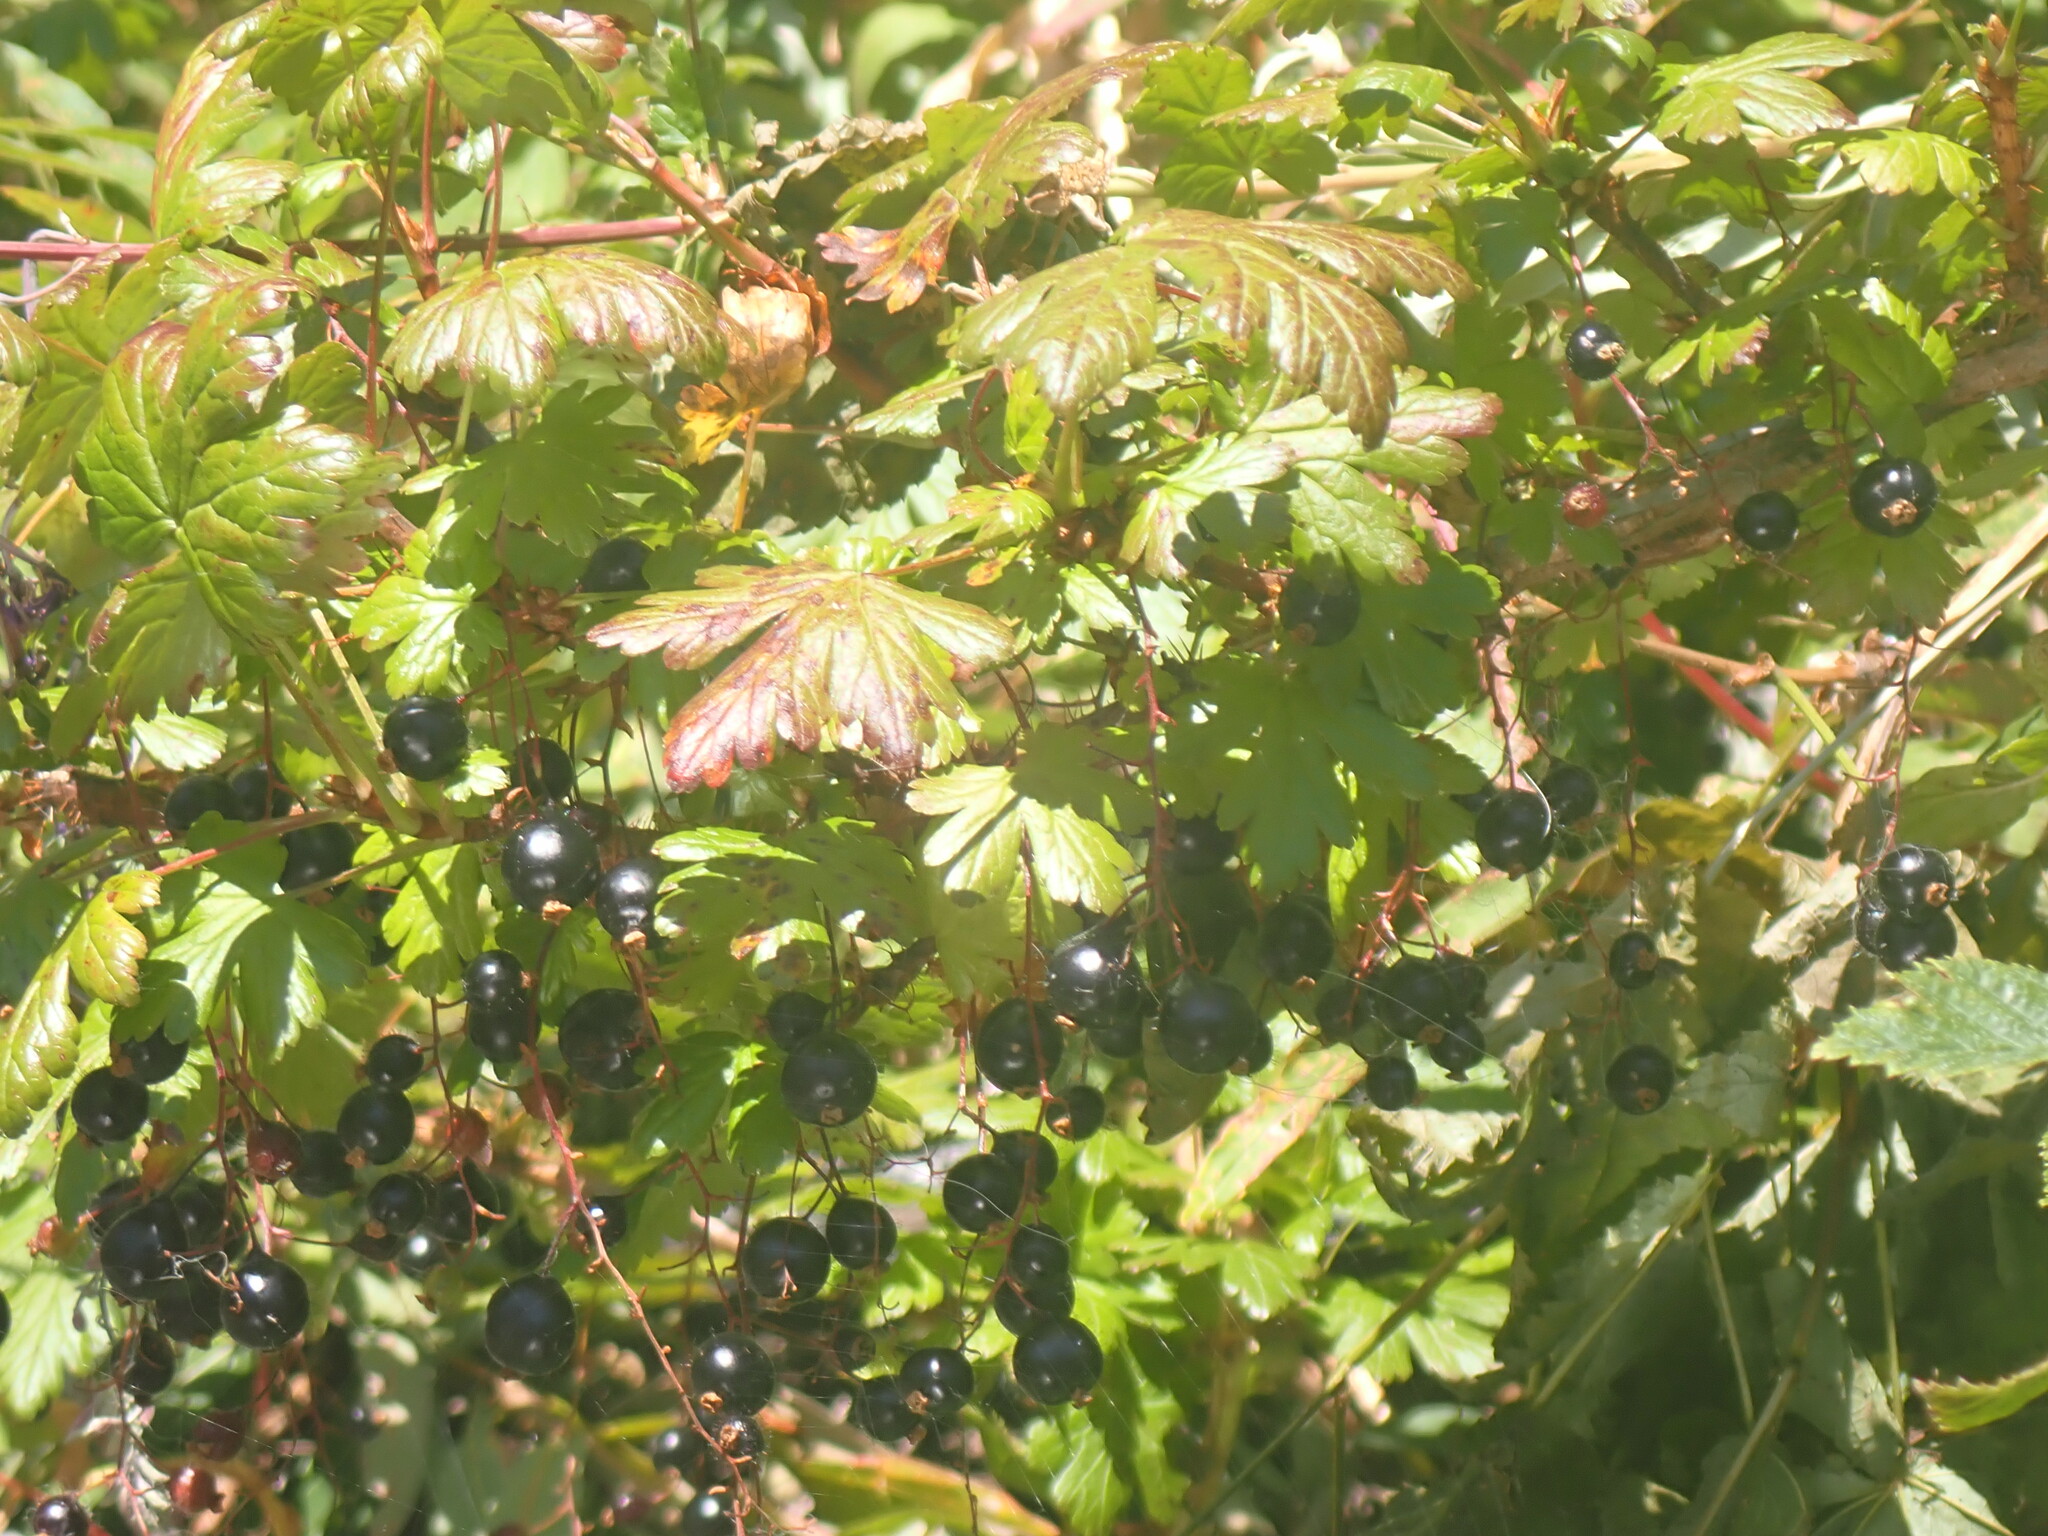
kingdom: Plantae
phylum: Tracheophyta
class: Magnoliopsida
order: Saxifragales
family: Grossulariaceae
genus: Ribes
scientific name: Ribes lacustre
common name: Black gooseberry
